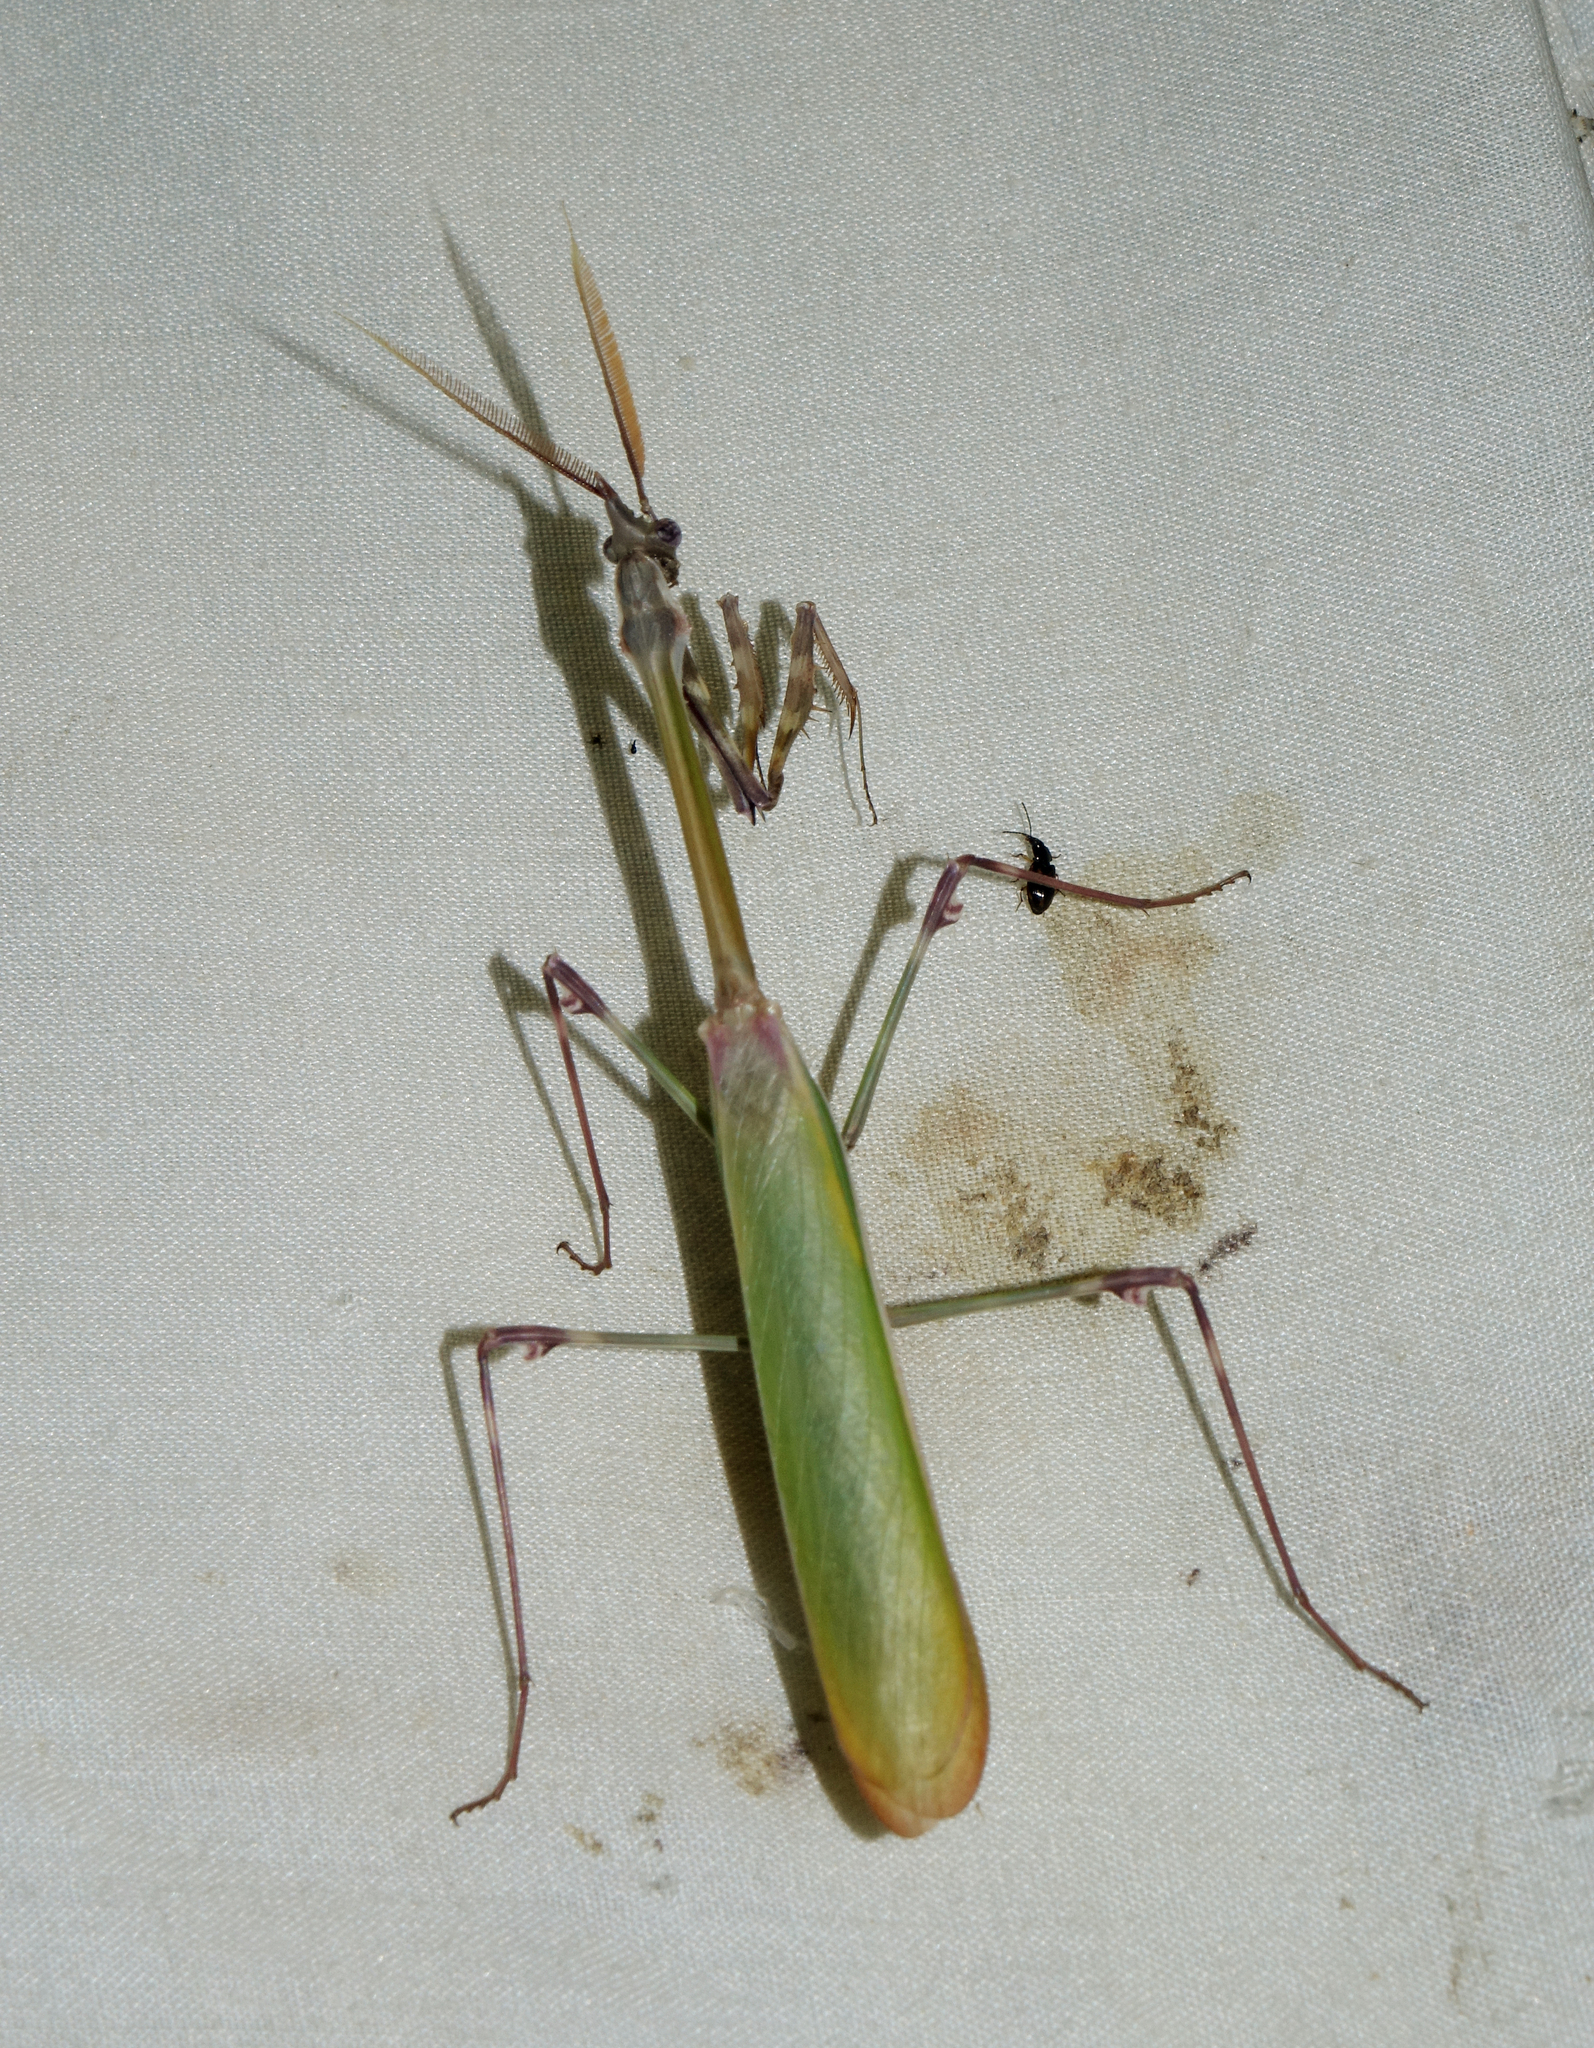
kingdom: Animalia
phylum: Arthropoda
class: Insecta
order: Mantodea
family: Empusidae
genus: Empusa
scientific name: Empusa pennicornis
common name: Conehead mantis
